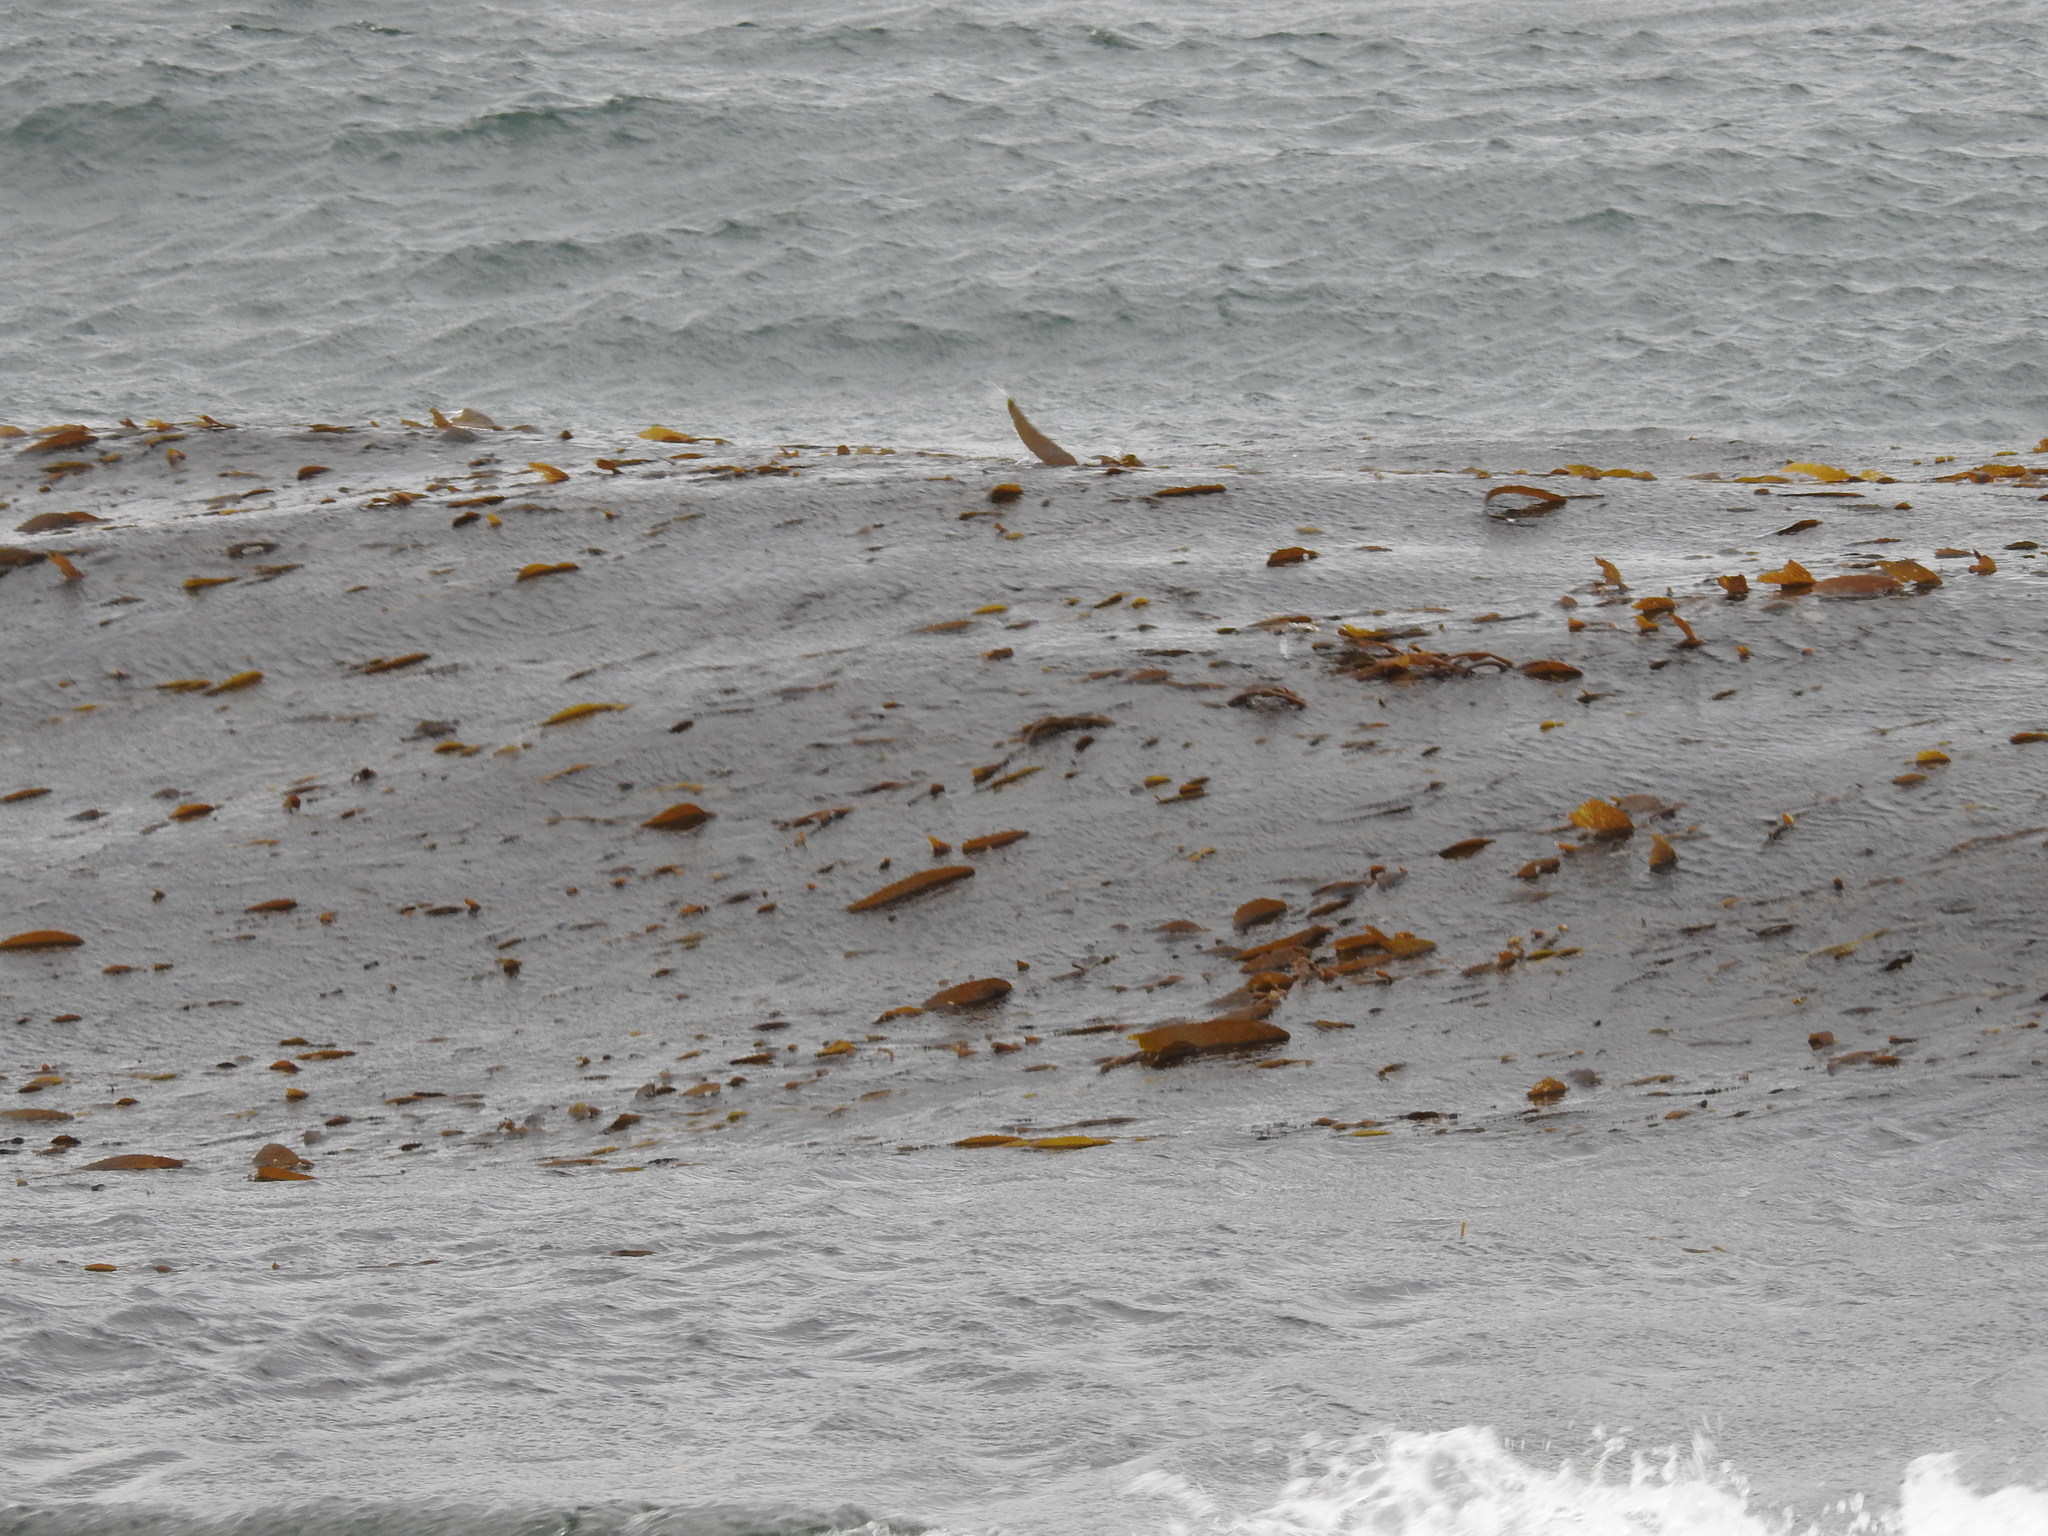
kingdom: Chromista
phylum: Ochrophyta
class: Phaeophyceae
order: Laminariales
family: Laminariaceae
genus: Macrocystis
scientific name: Macrocystis pyrifera
